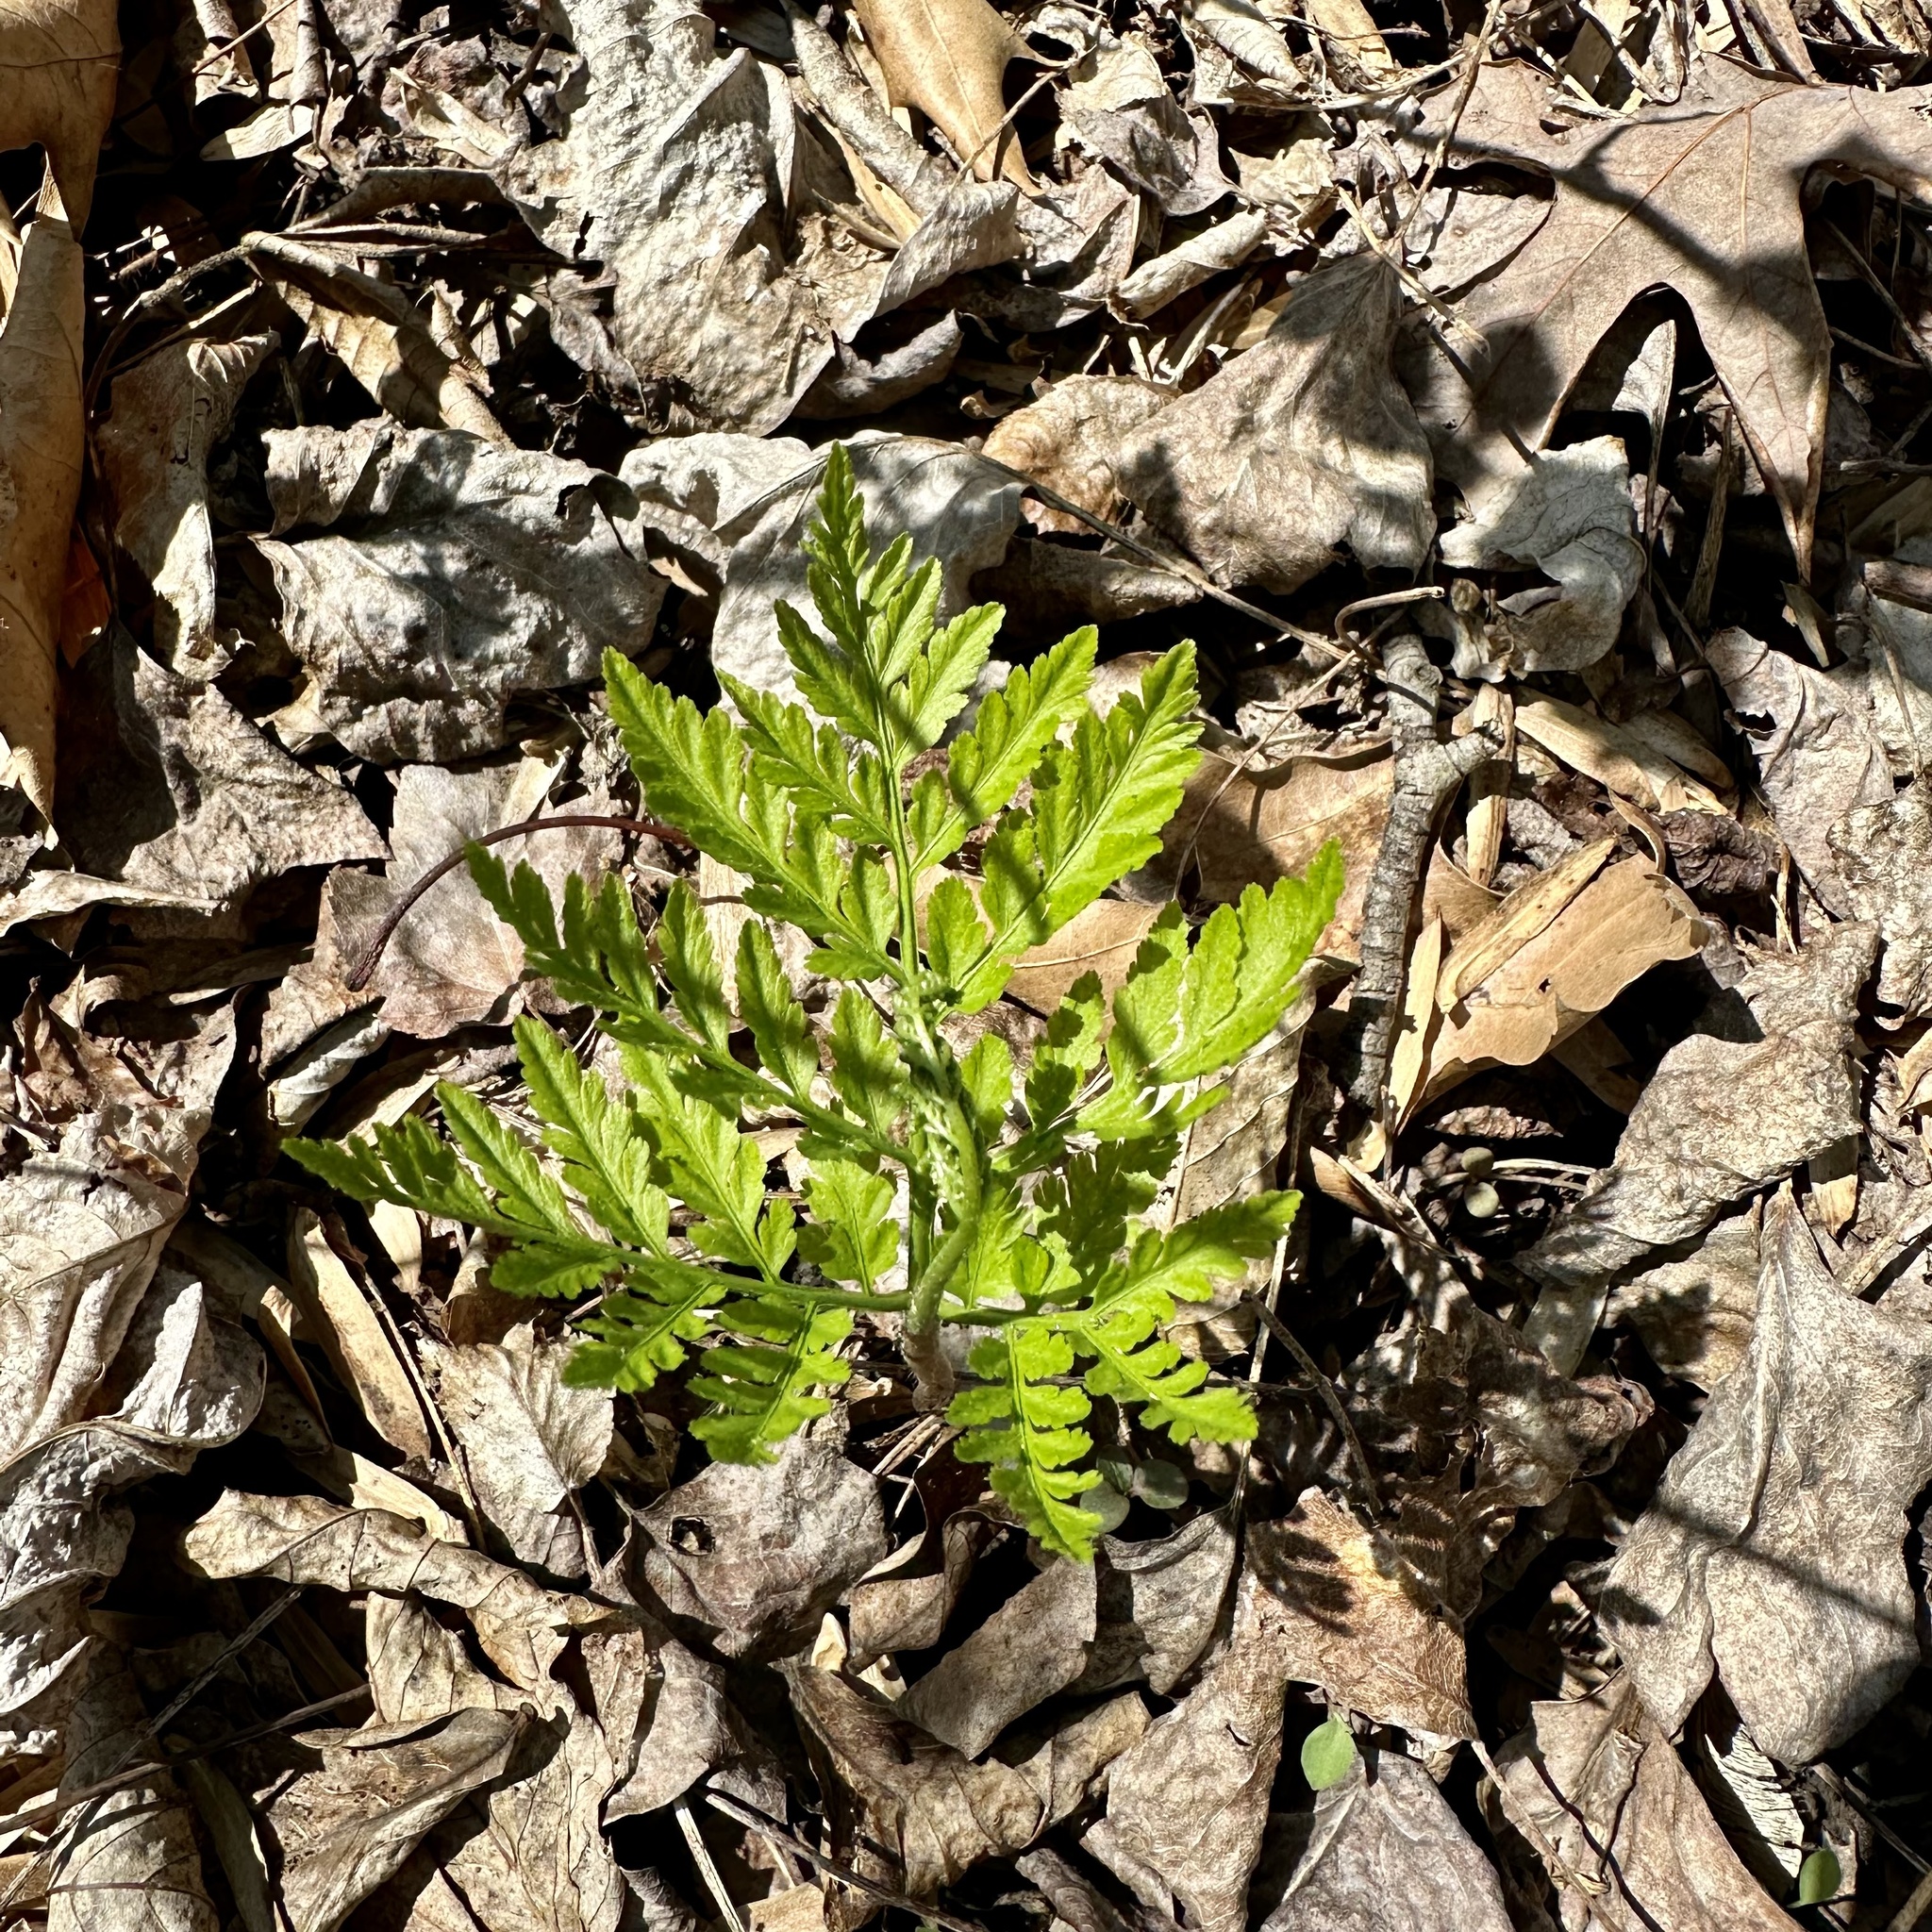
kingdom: Plantae
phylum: Tracheophyta
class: Polypodiopsida
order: Ophioglossales
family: Ophioglossaceae
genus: Botrypus
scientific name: Botrypus virginianus
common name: Common grapefern
